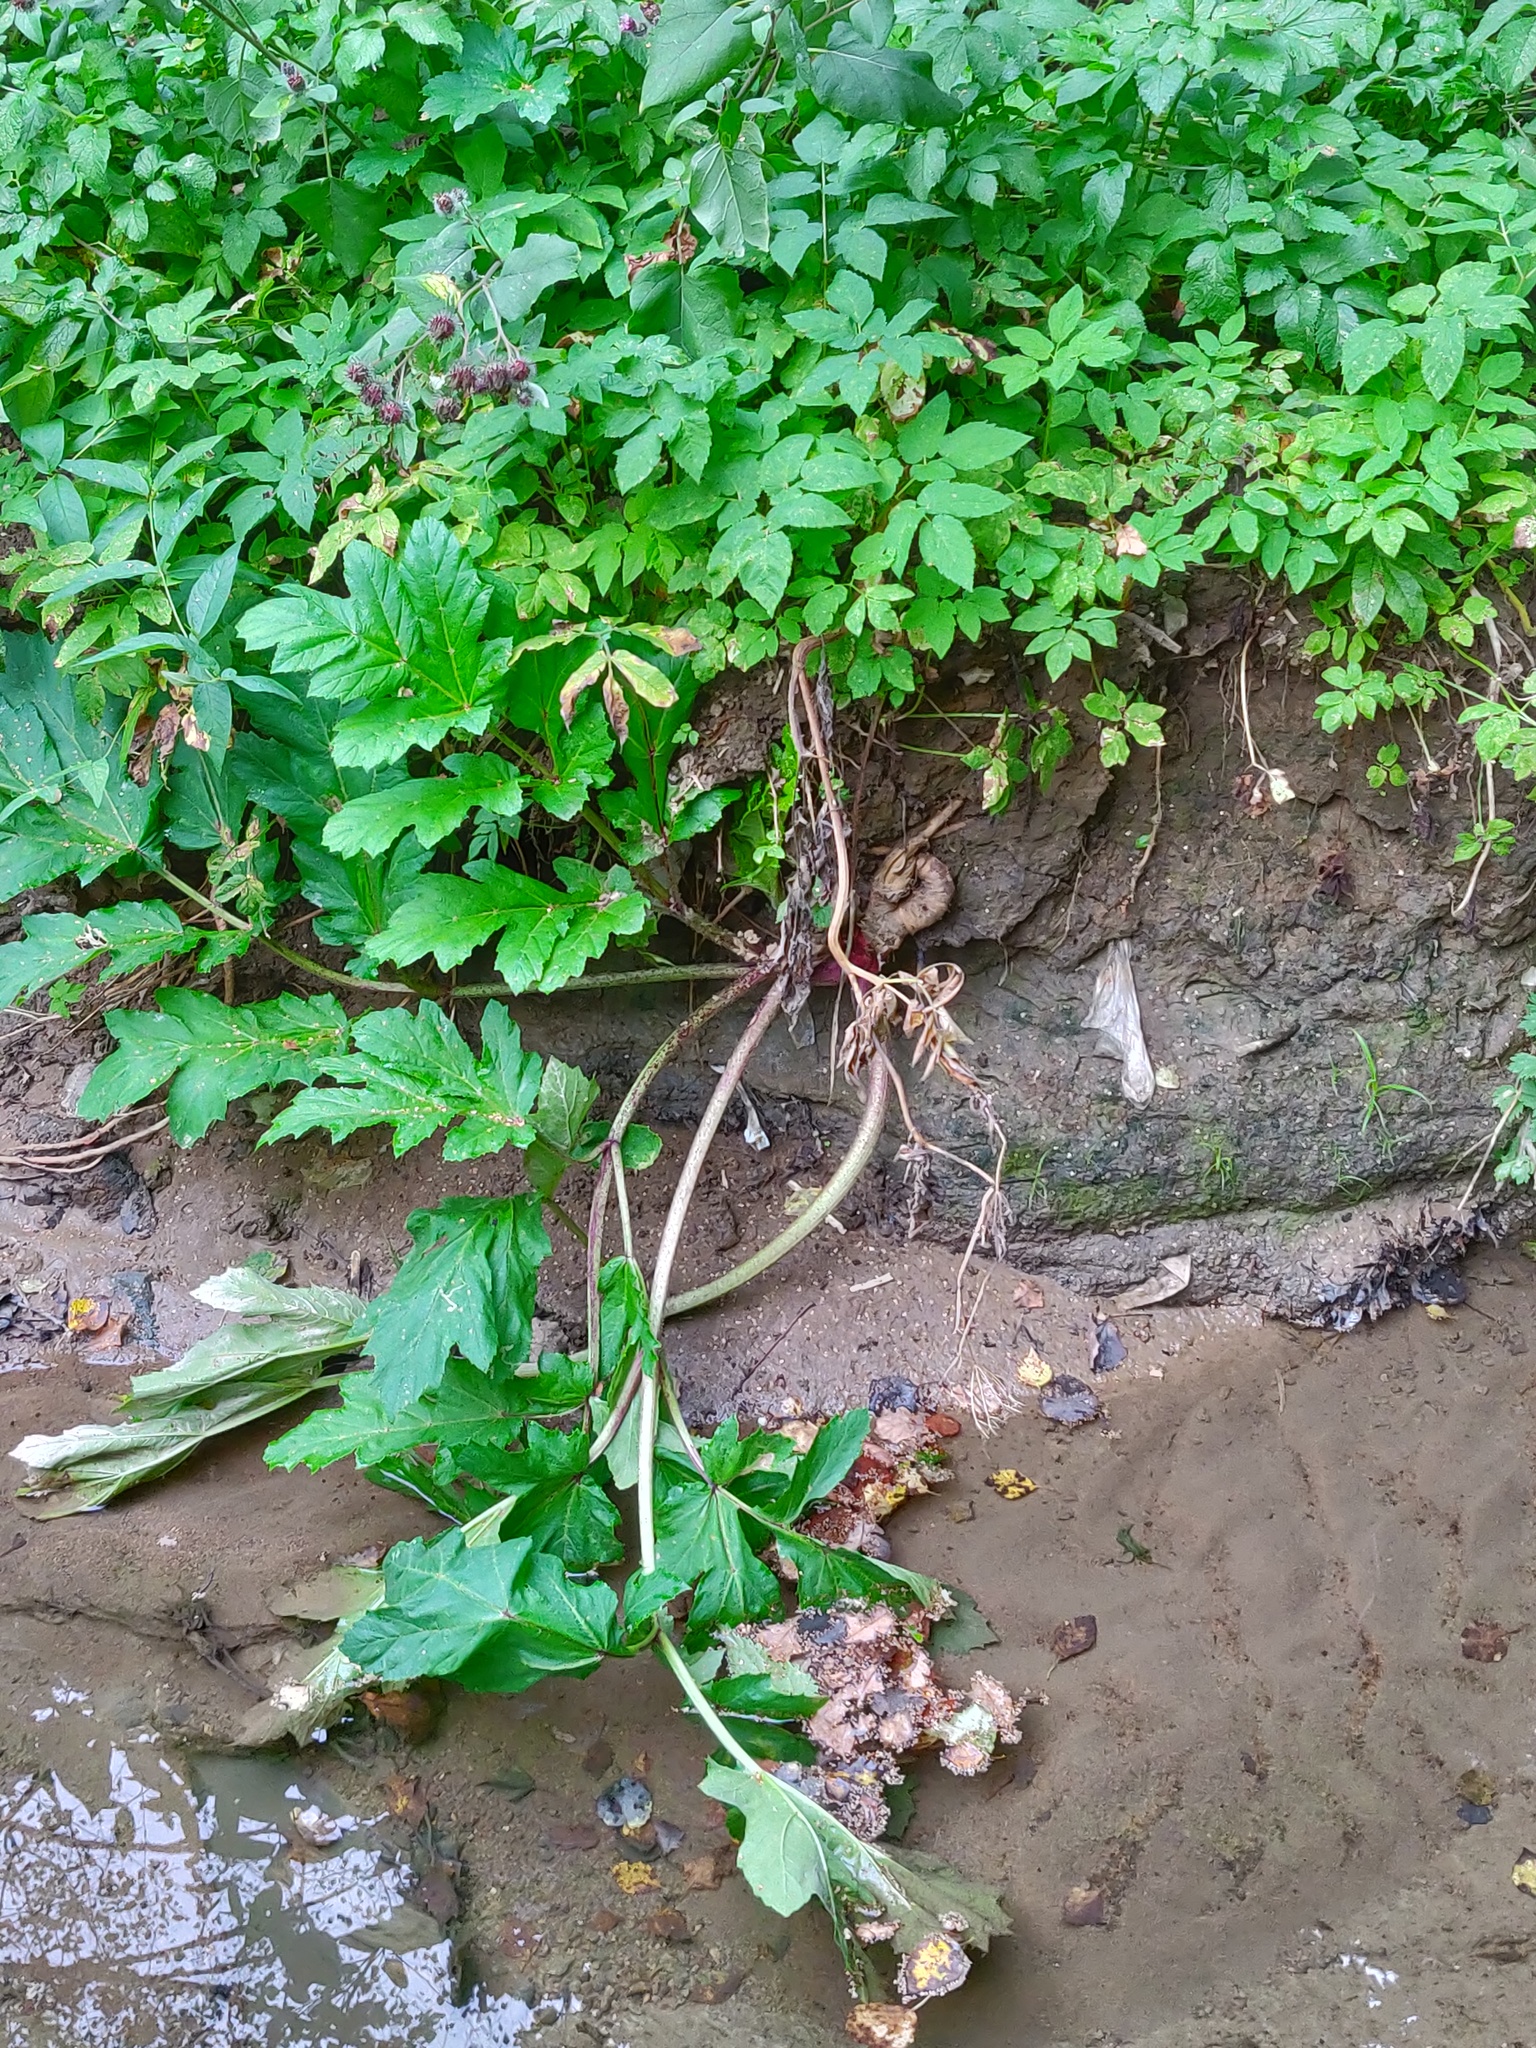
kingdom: Plantae
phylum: Tracheophyta
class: Magnoliopsida
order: Apiales
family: Apiaceae
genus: Heracleum
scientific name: Heracleum sosnowskyi
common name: Sosnowsky's hogweed
